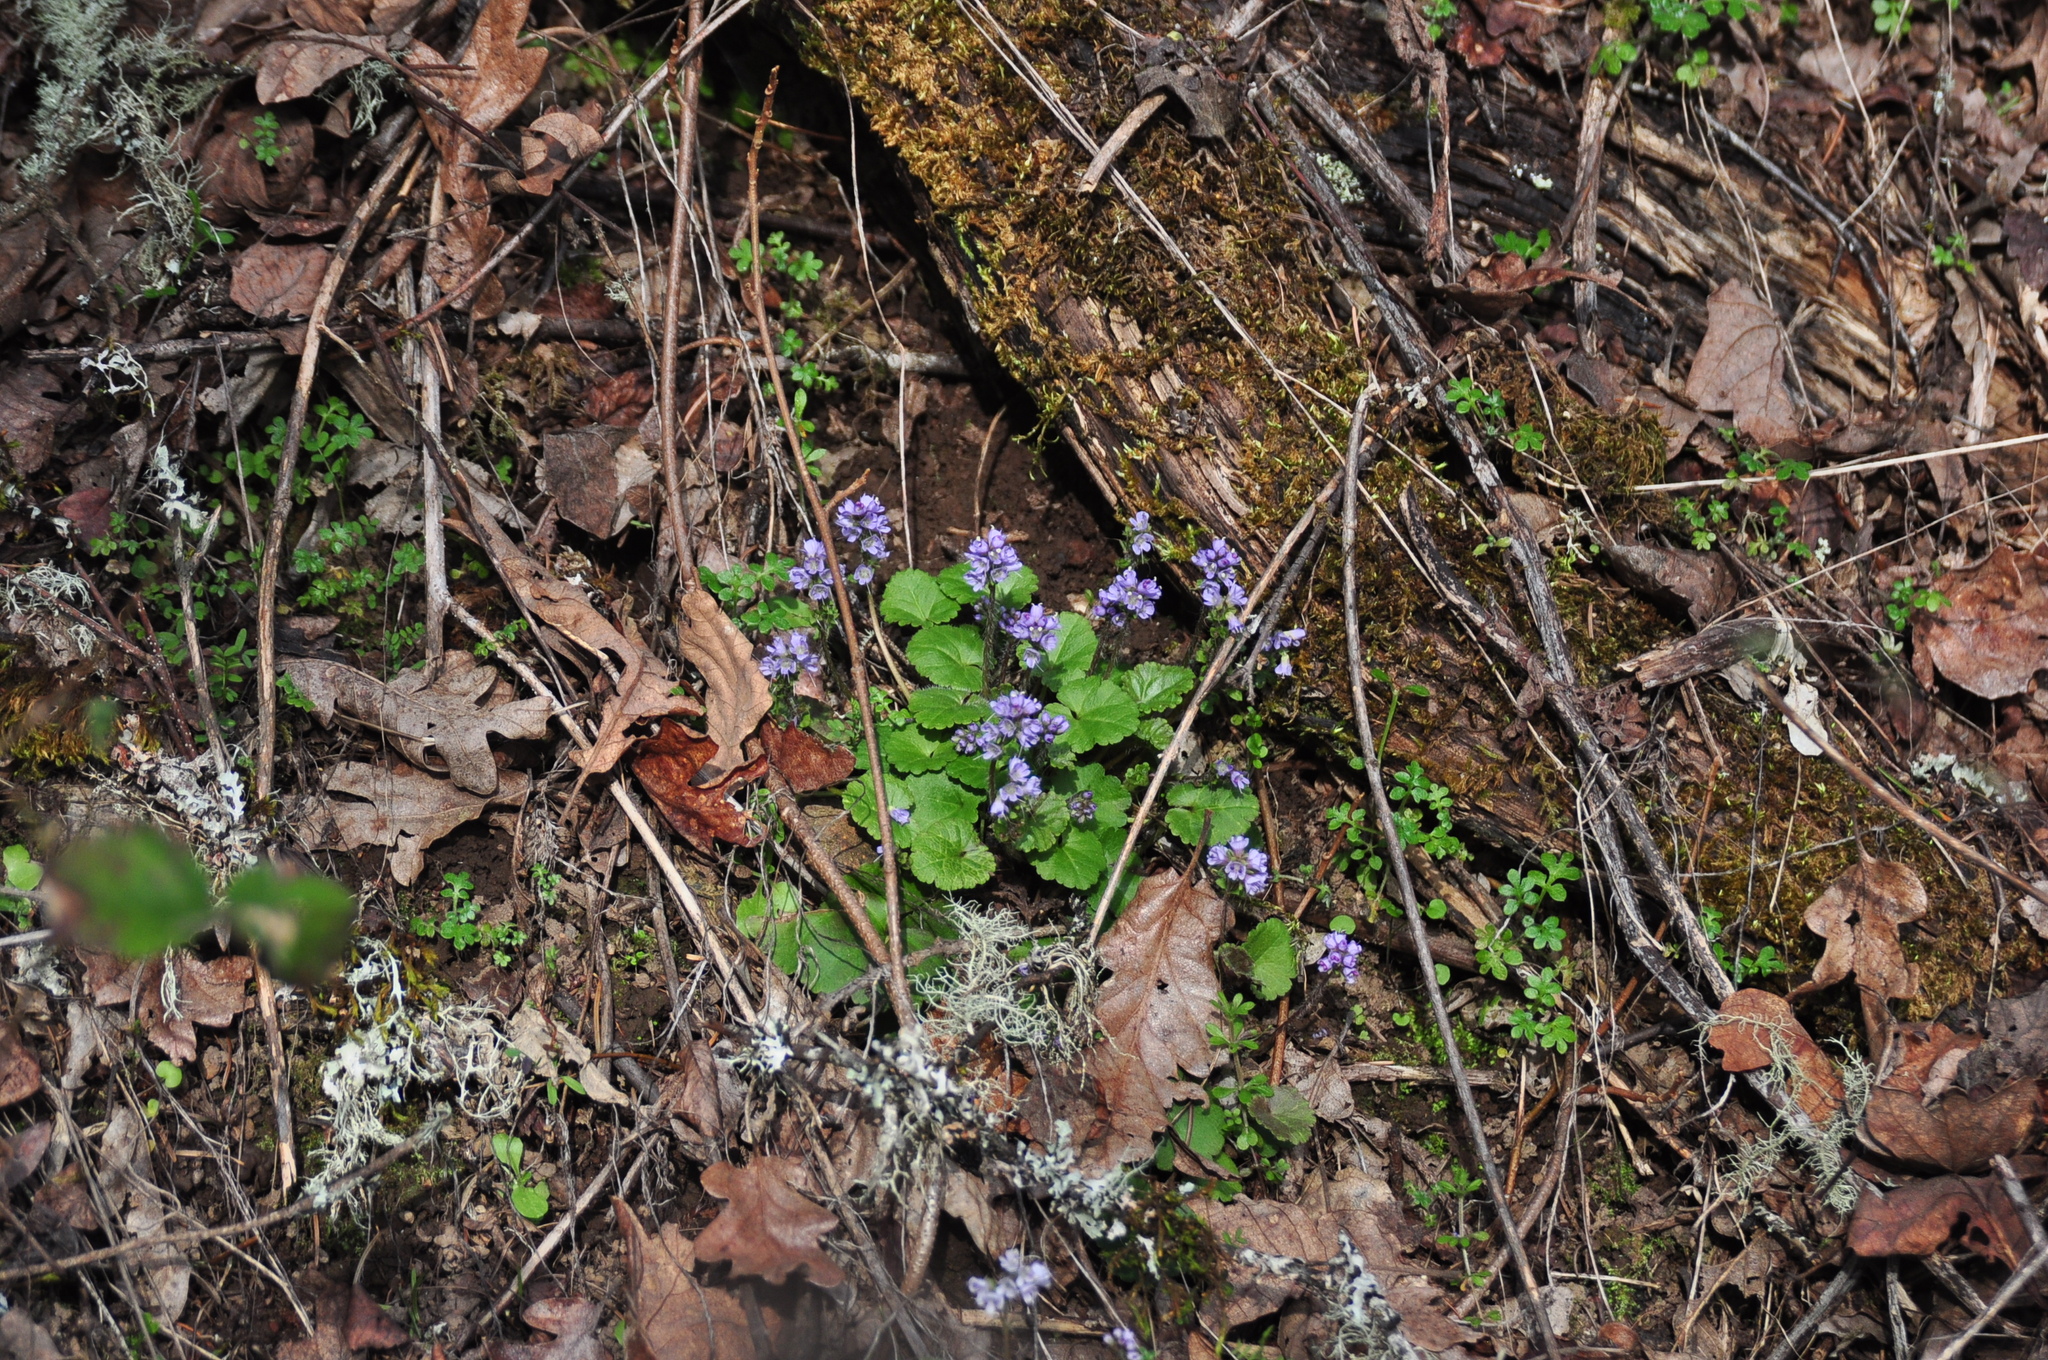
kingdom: Plantae
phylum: Tracheophyta
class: Magnoliopsida
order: Lamiales
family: Plantaginaceae
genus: Synthyris
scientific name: Synthyris reniformis
